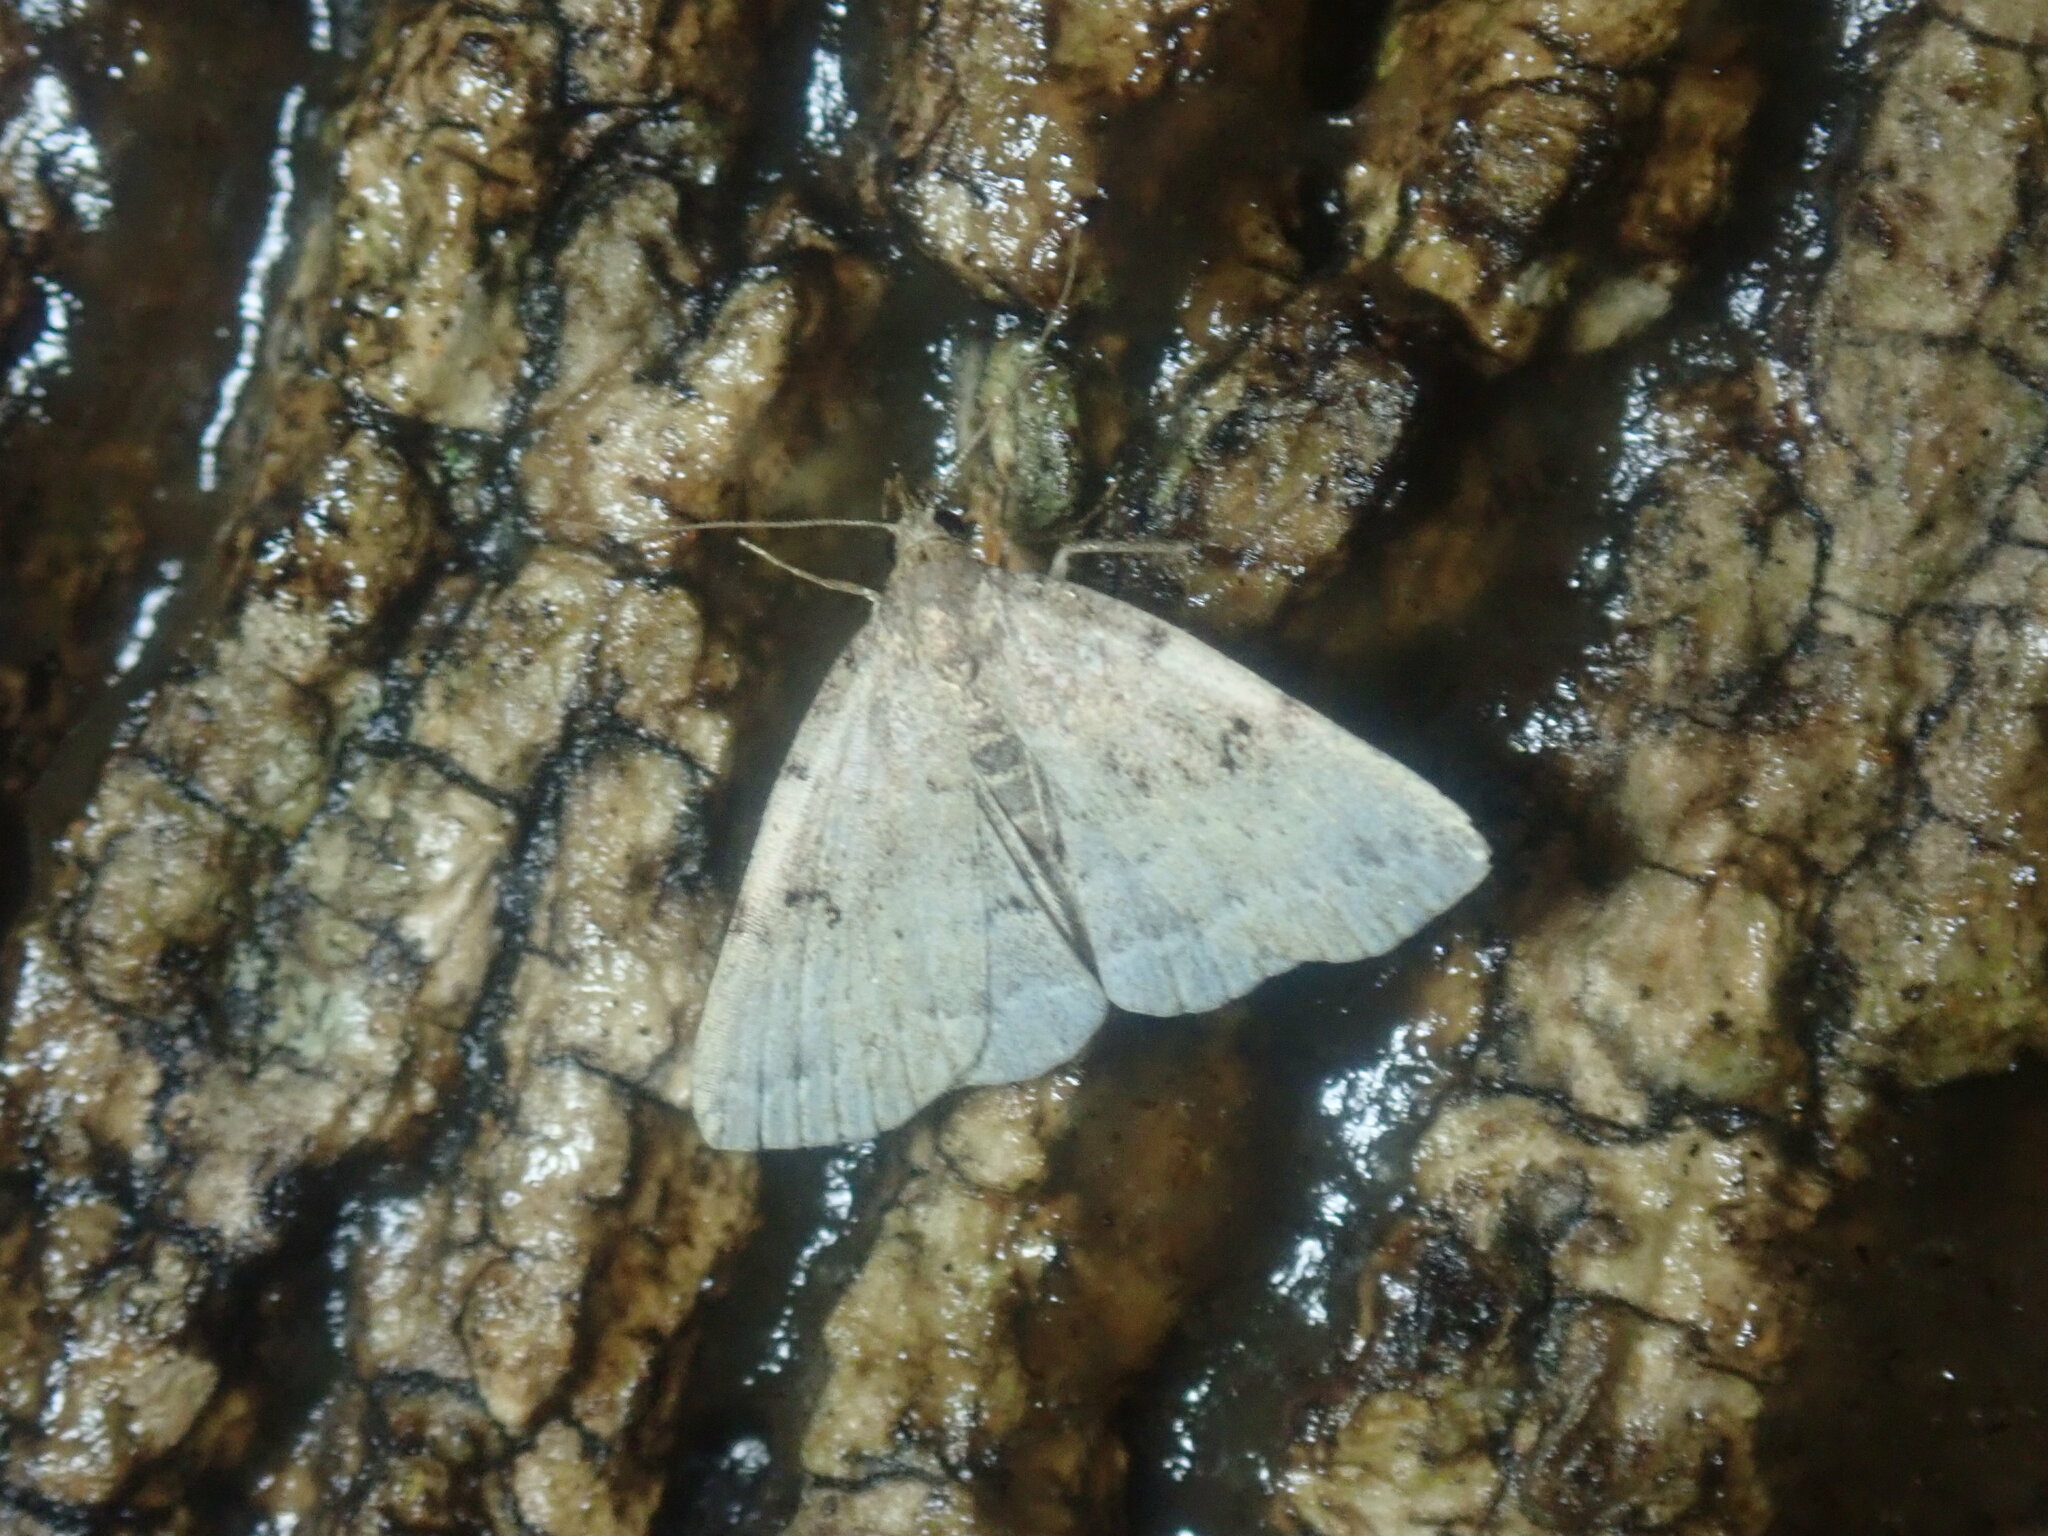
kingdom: Animalia
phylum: Arthropoda
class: Insecta
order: Lepidoptera
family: Erebidae
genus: Zanclognatha
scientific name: Zanclognatha lituralis
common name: Lettered fan-foot
